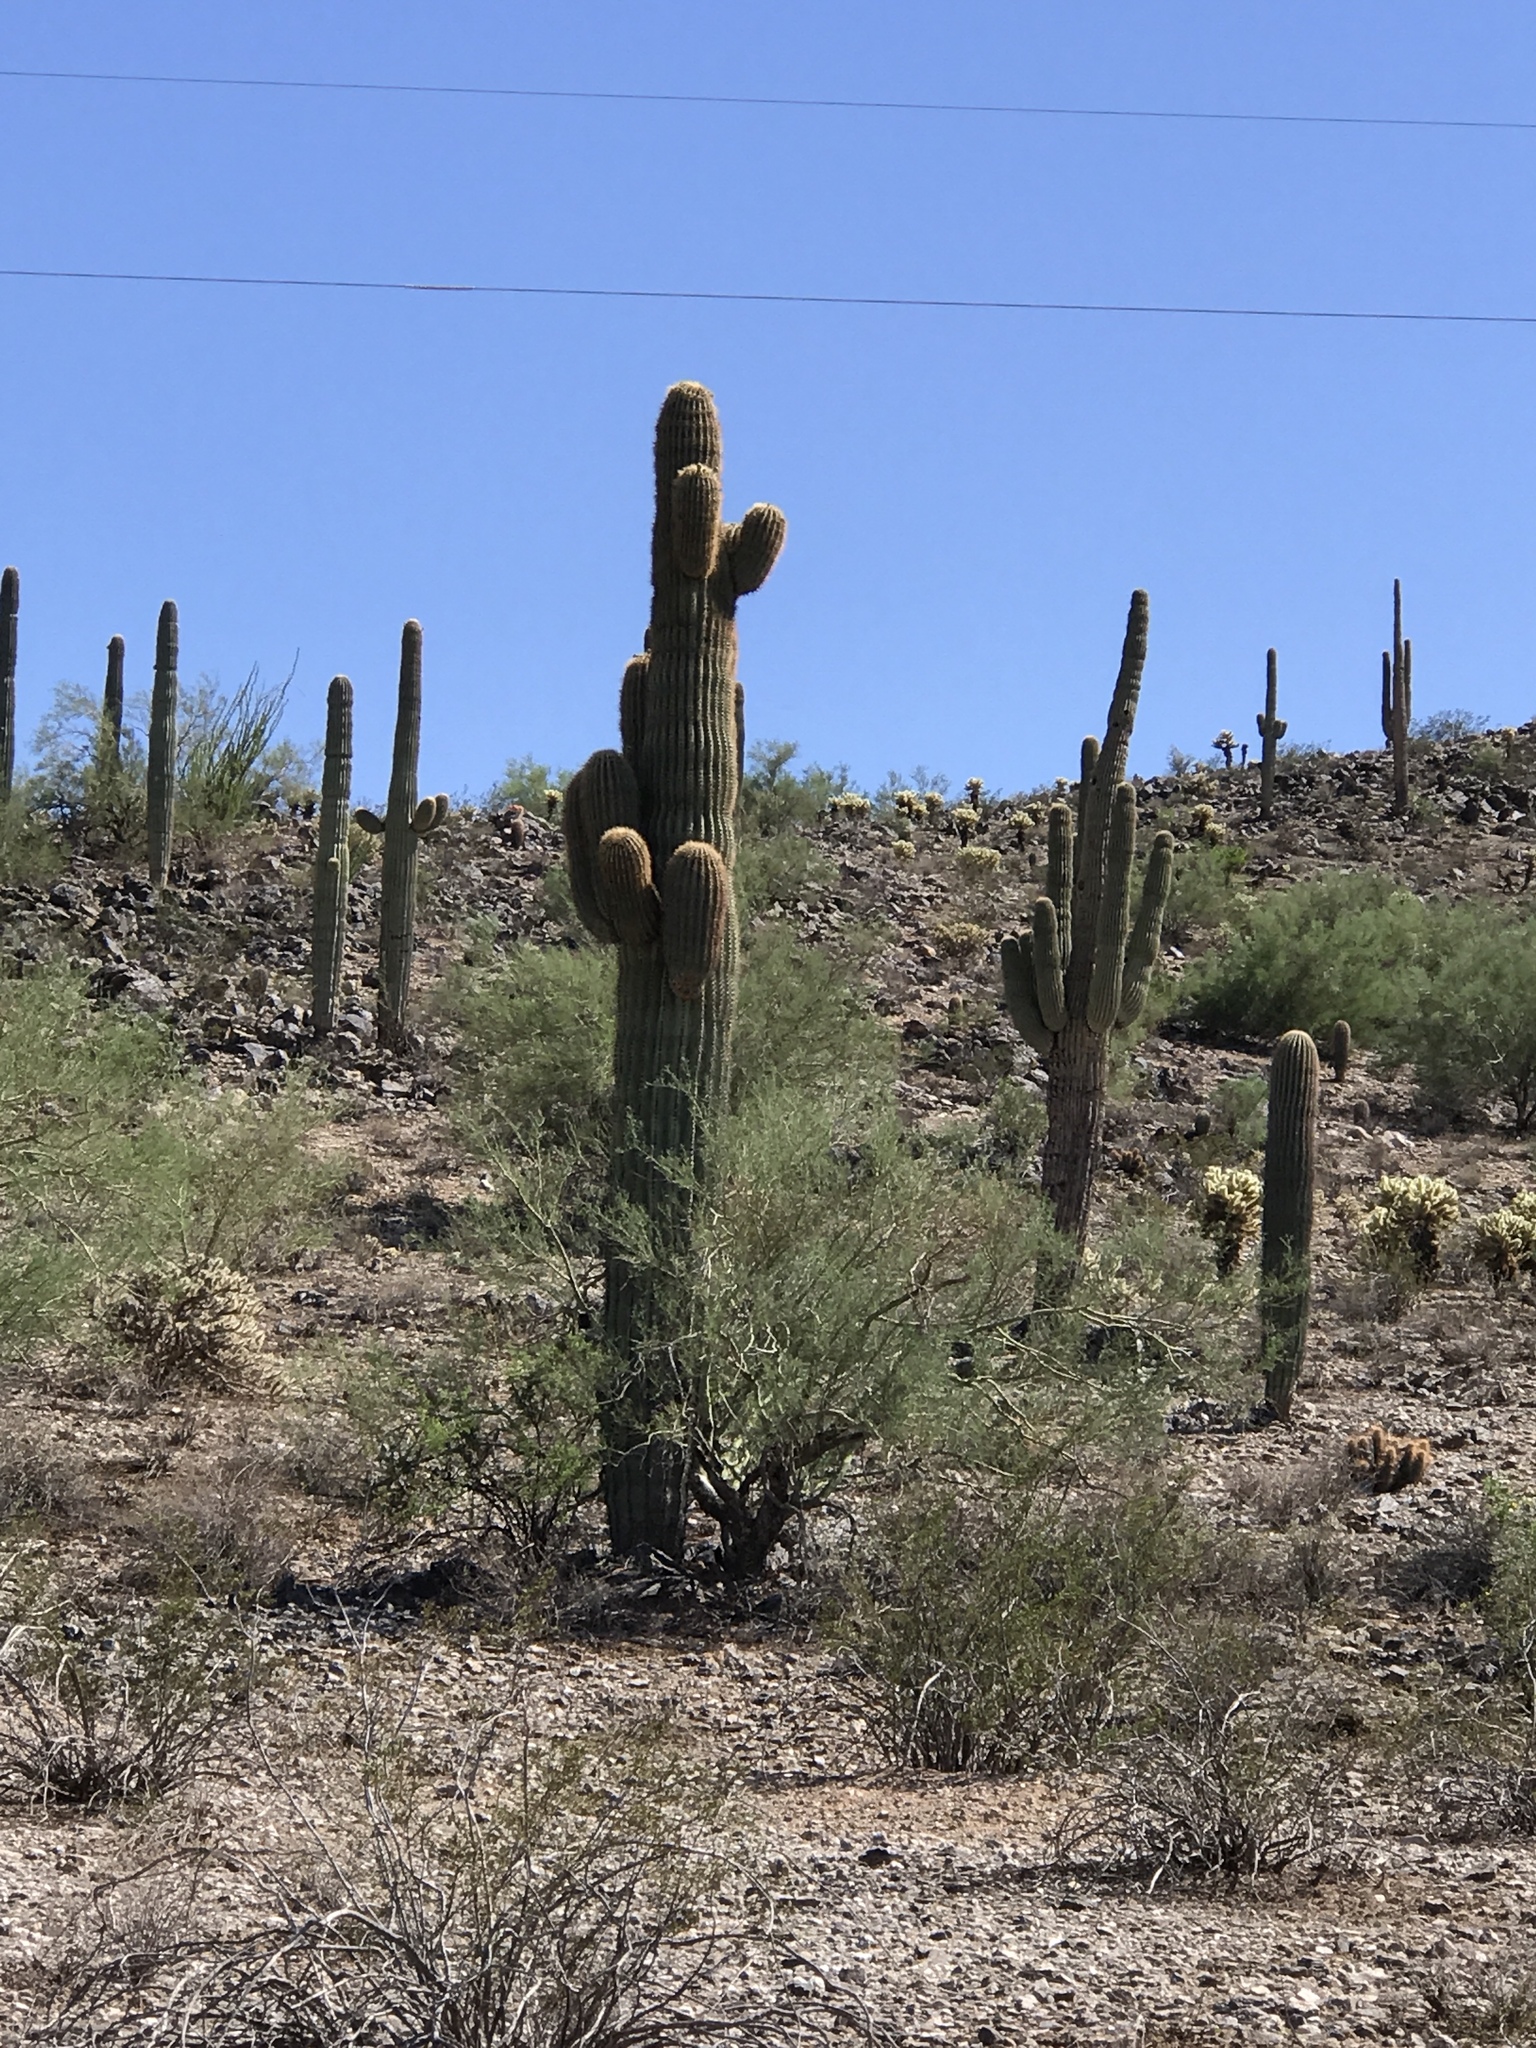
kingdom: Plantae
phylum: Tracheophyta
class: Magnoliopsida
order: Caryophyllales
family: Cactaceae
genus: Carnegiea
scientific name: Carnegiea gigantea
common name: Saguaro
